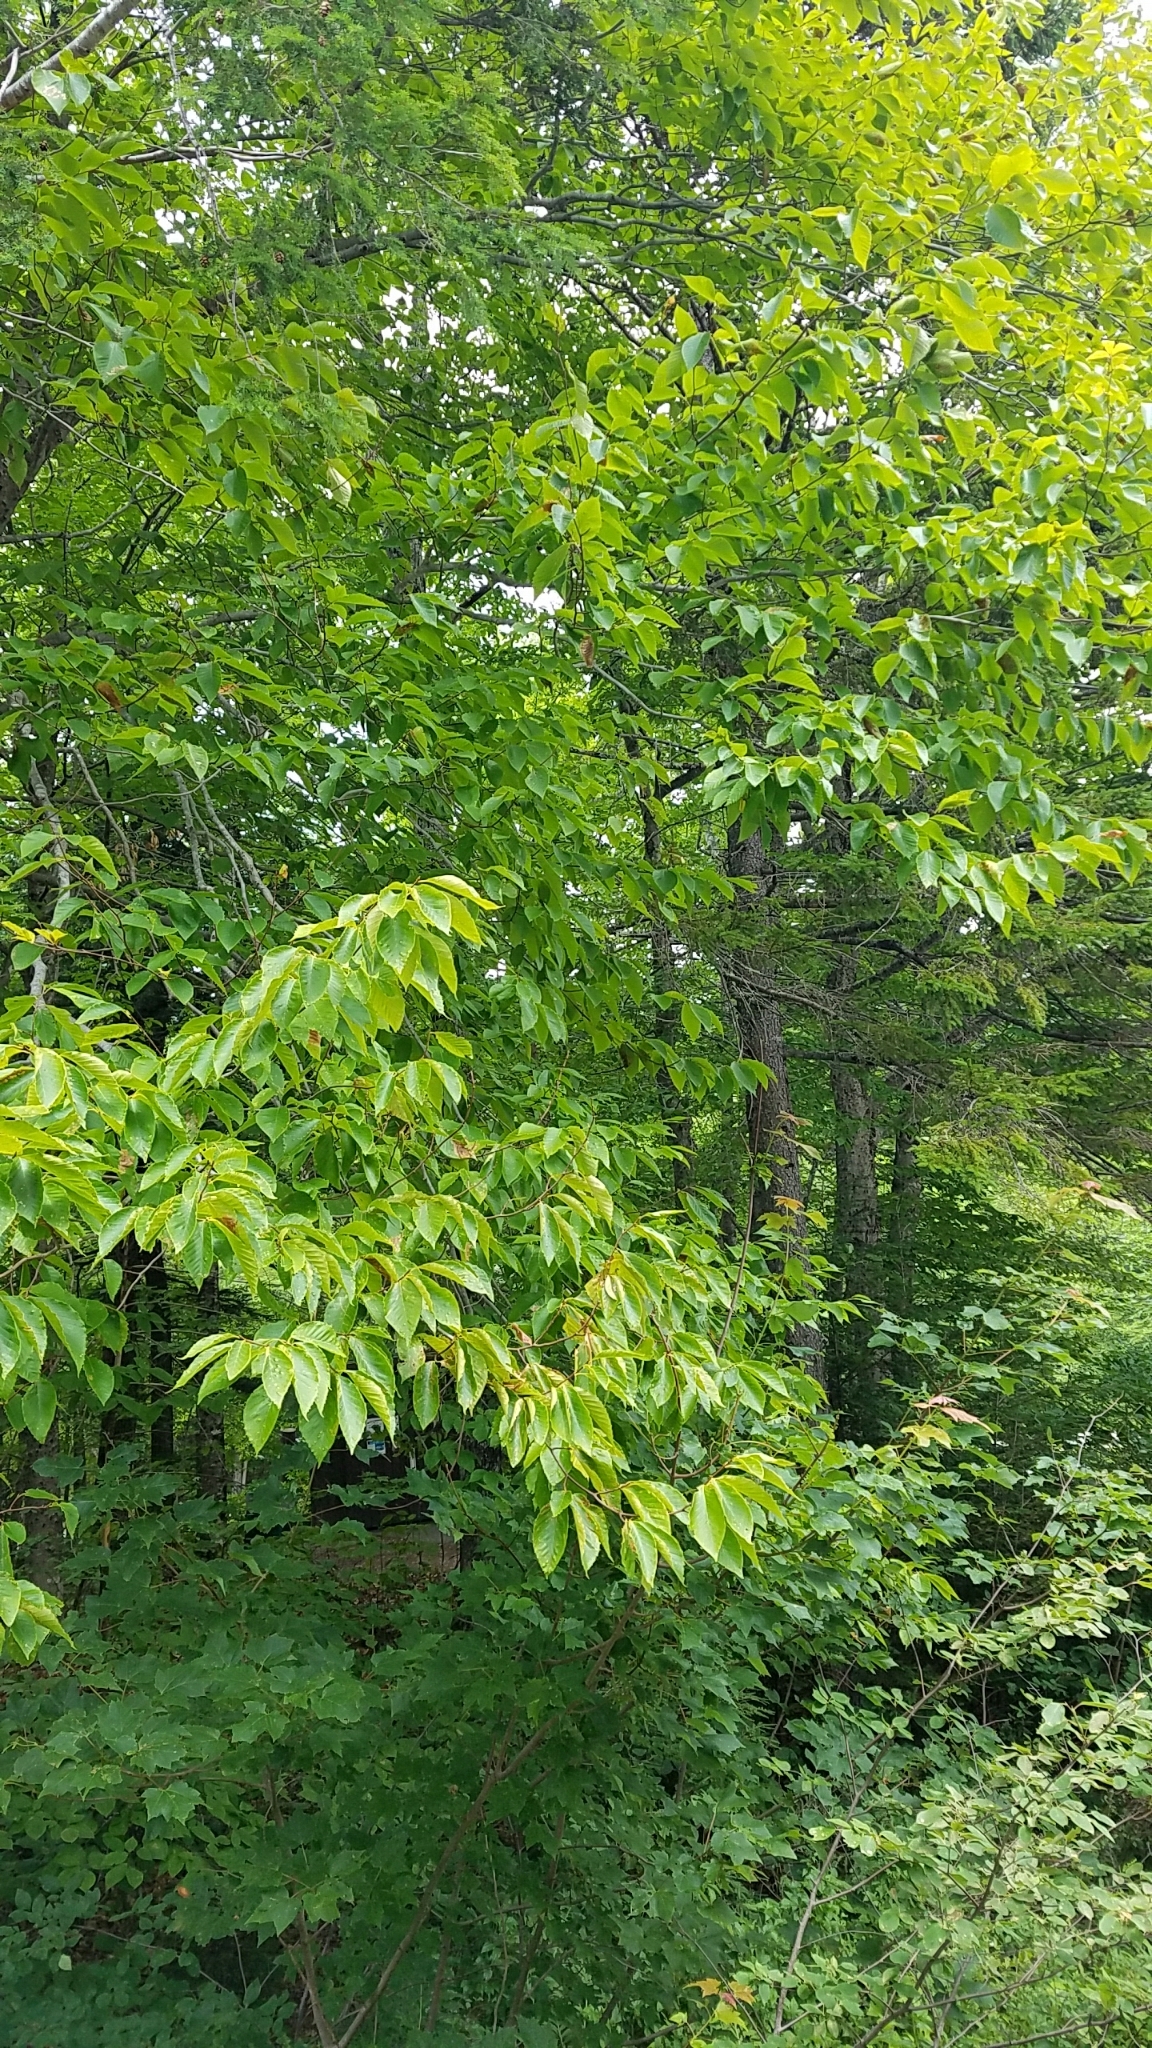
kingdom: Plantae
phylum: Tracheophyta
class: Magnoliopsida
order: Fagales
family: Fagaceae
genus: Fagus
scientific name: Fagus grandifolia
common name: American beech
